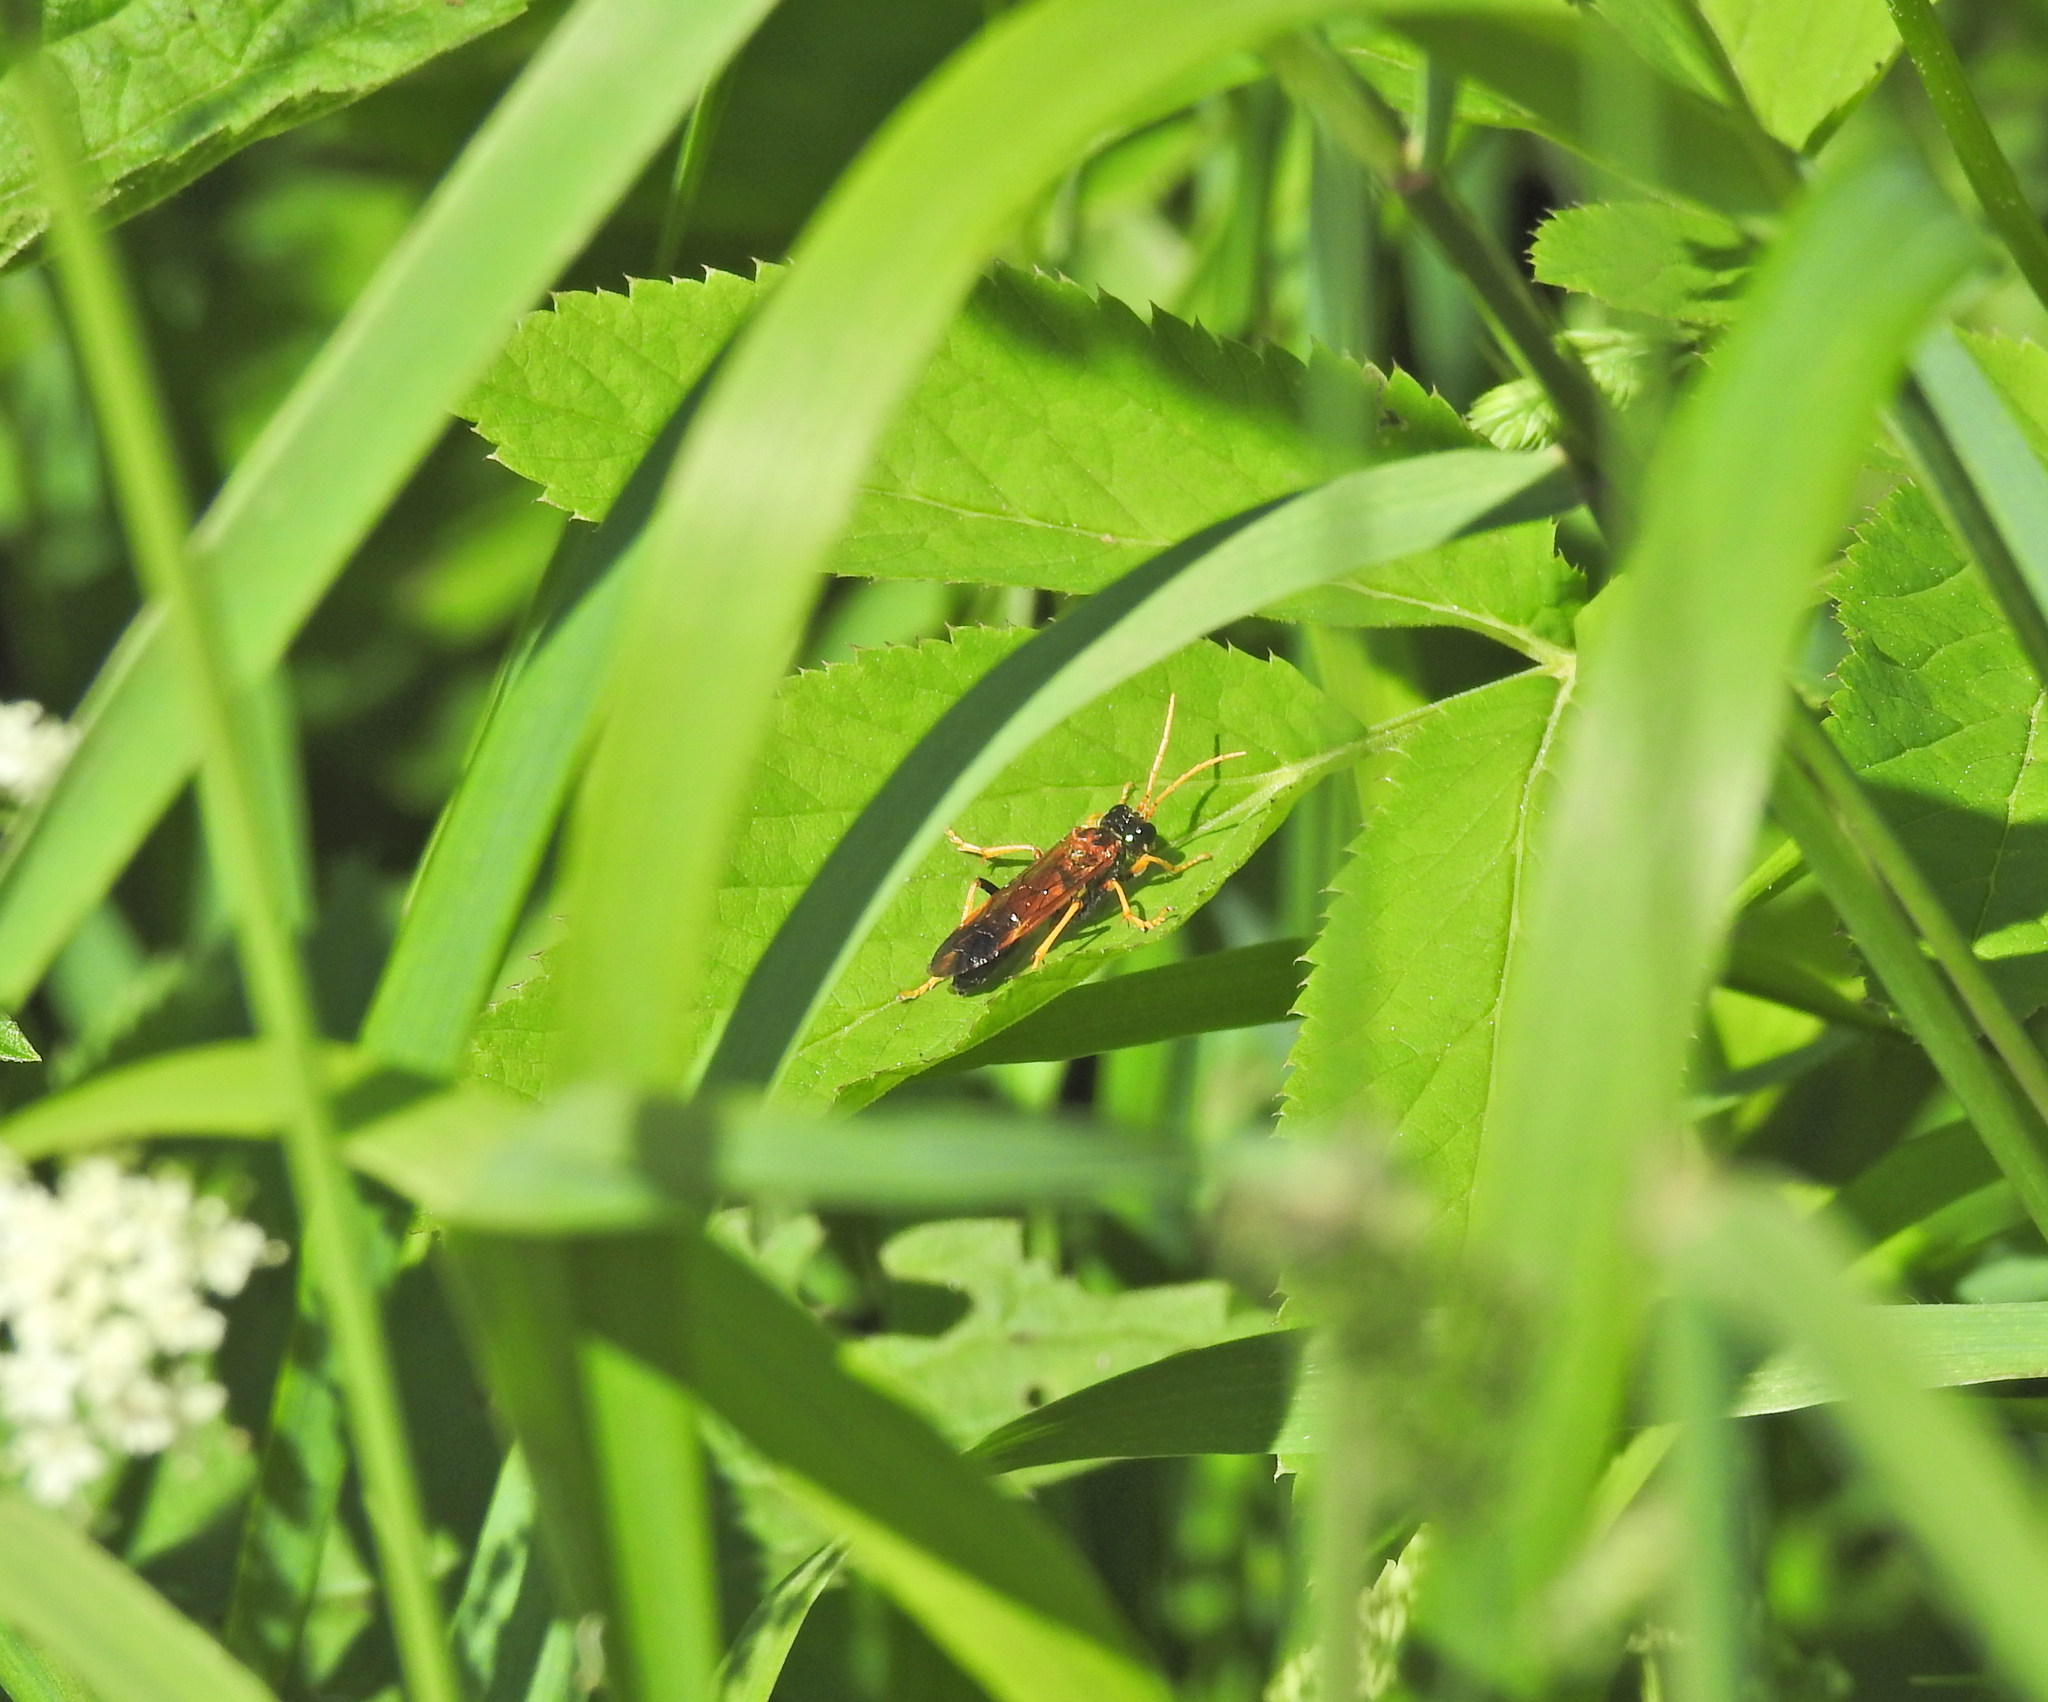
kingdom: Animalia
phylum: Arthropoda
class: Insecta
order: Hymenoptera
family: Tenthredinidae
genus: Tenthredo
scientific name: Tenthredo campestris
